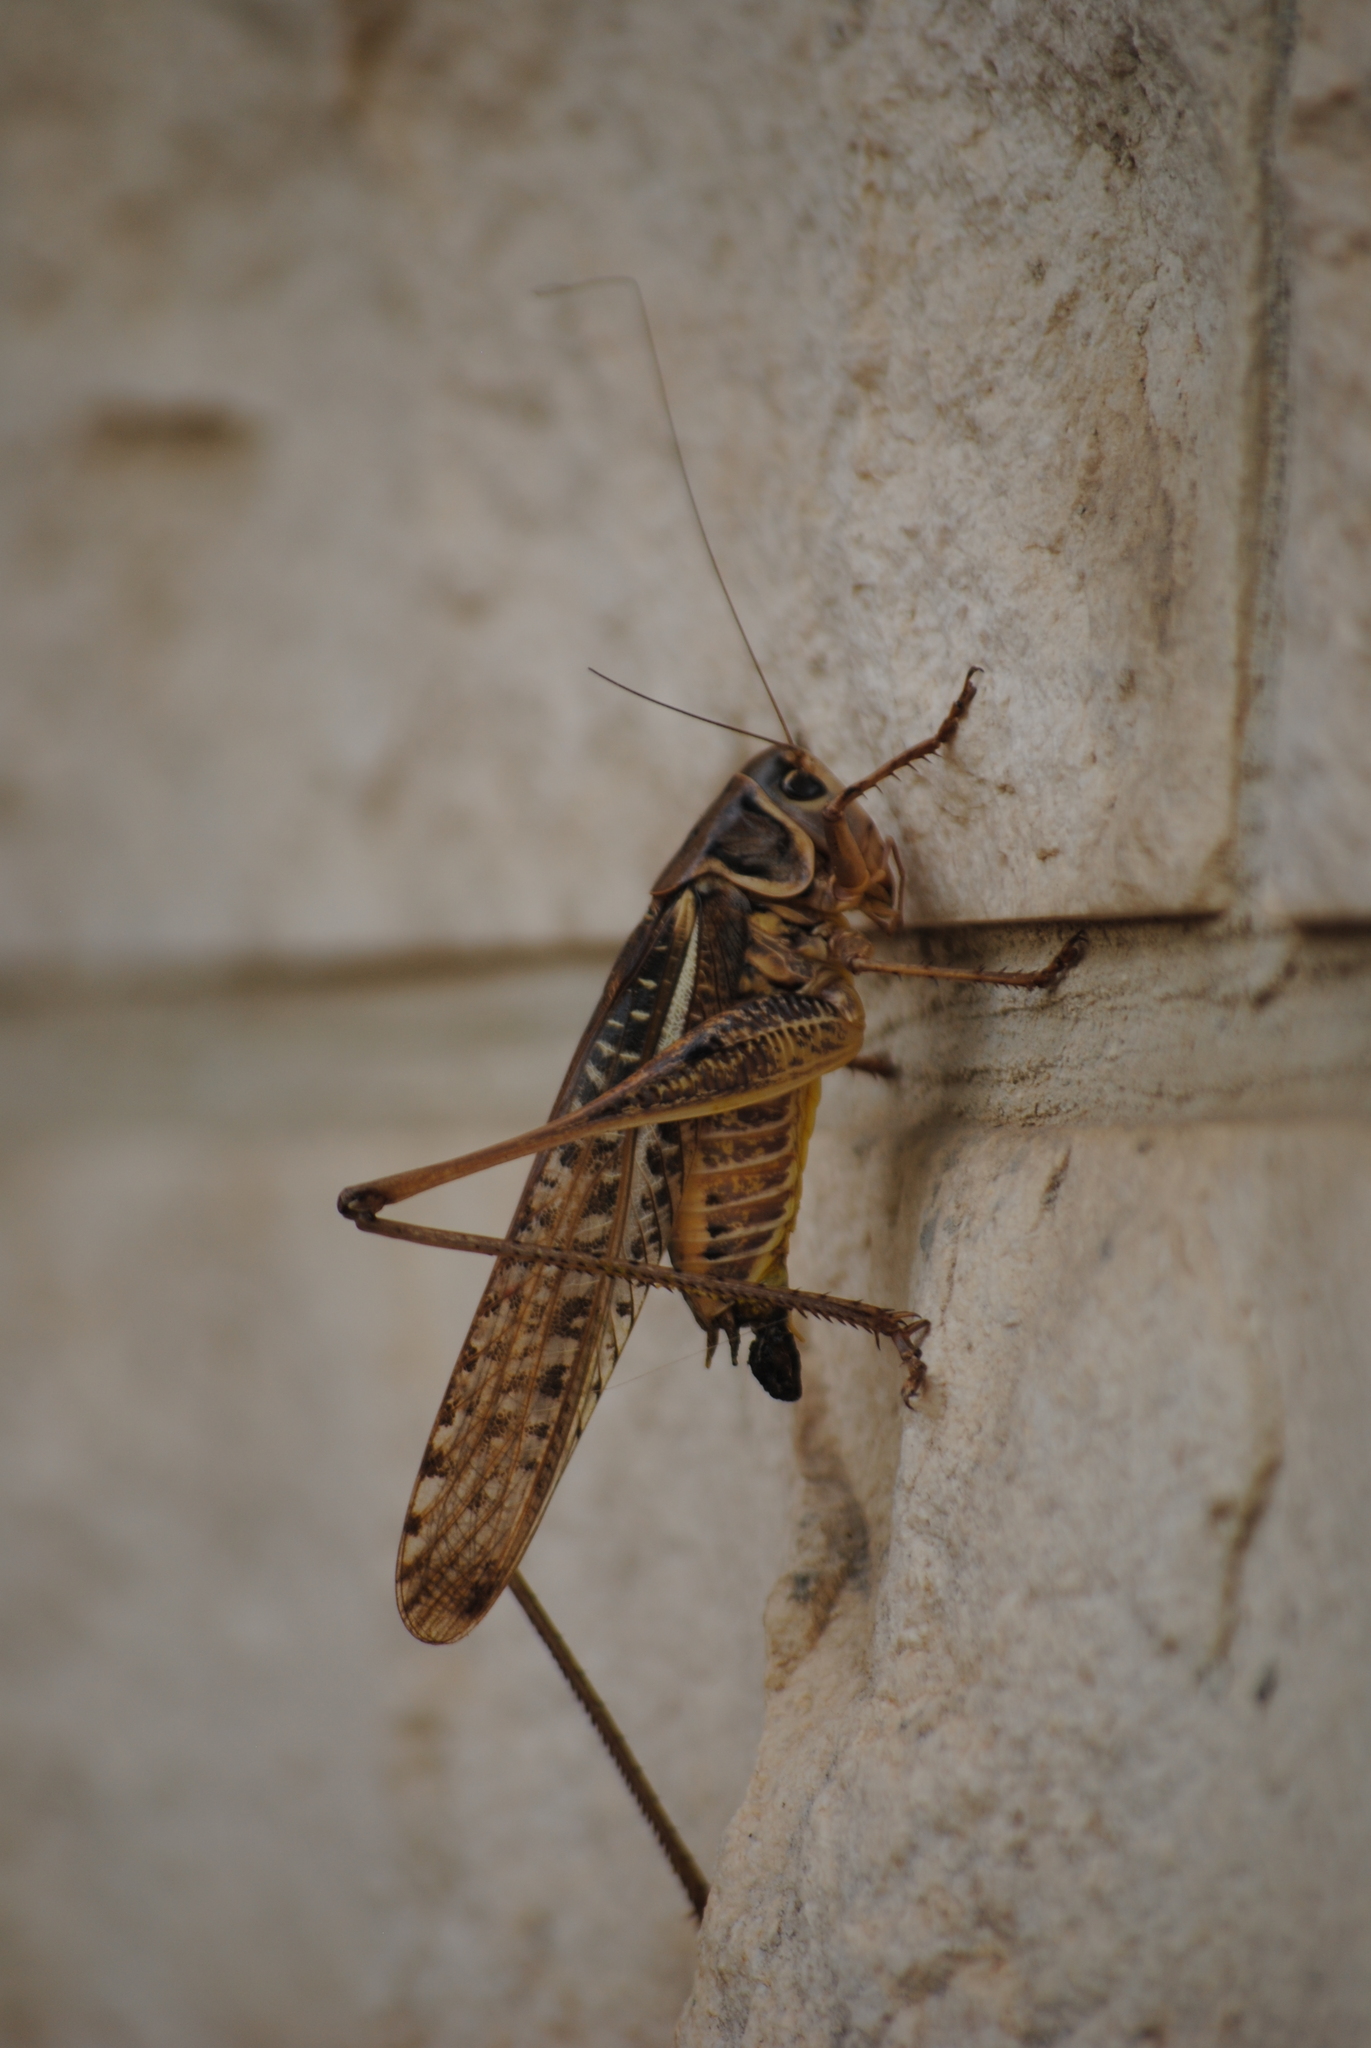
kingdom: Animalia
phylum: Arthropoda
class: Insecta
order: Orthoptera
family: Tettigoniidae
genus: Decticus
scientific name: Decticus albifrons
